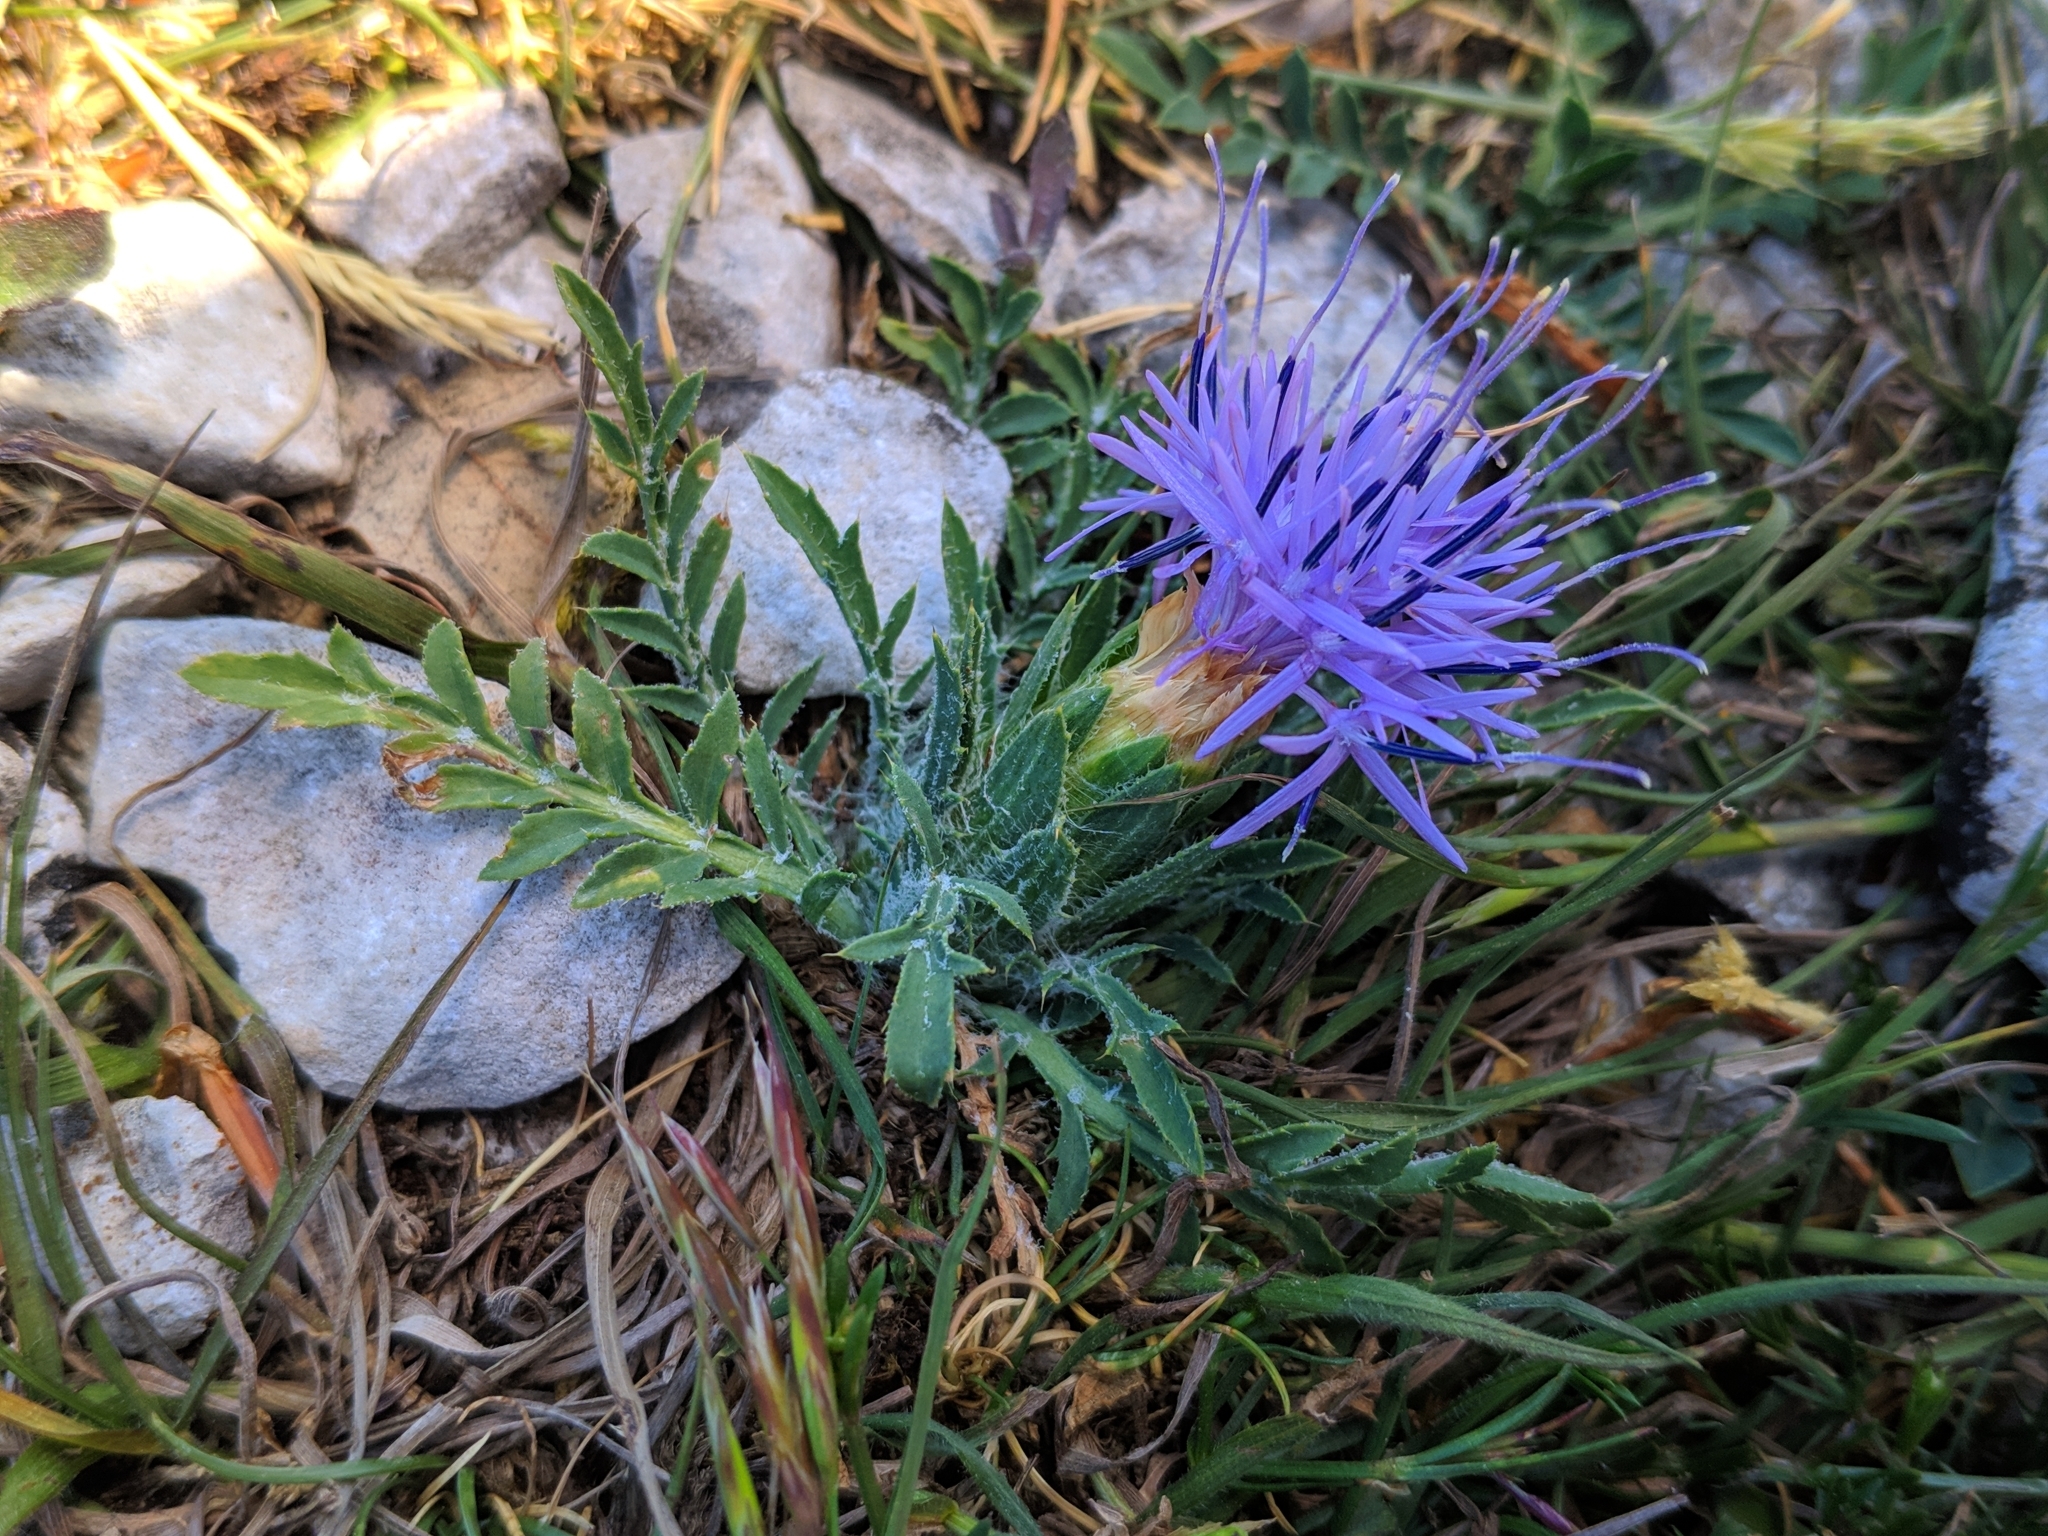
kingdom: Plantae
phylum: Tracheophyta
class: Magnoliopsida
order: Asterales
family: Asteraceae
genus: Carduncellus
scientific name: Carduncellus mitissimus
